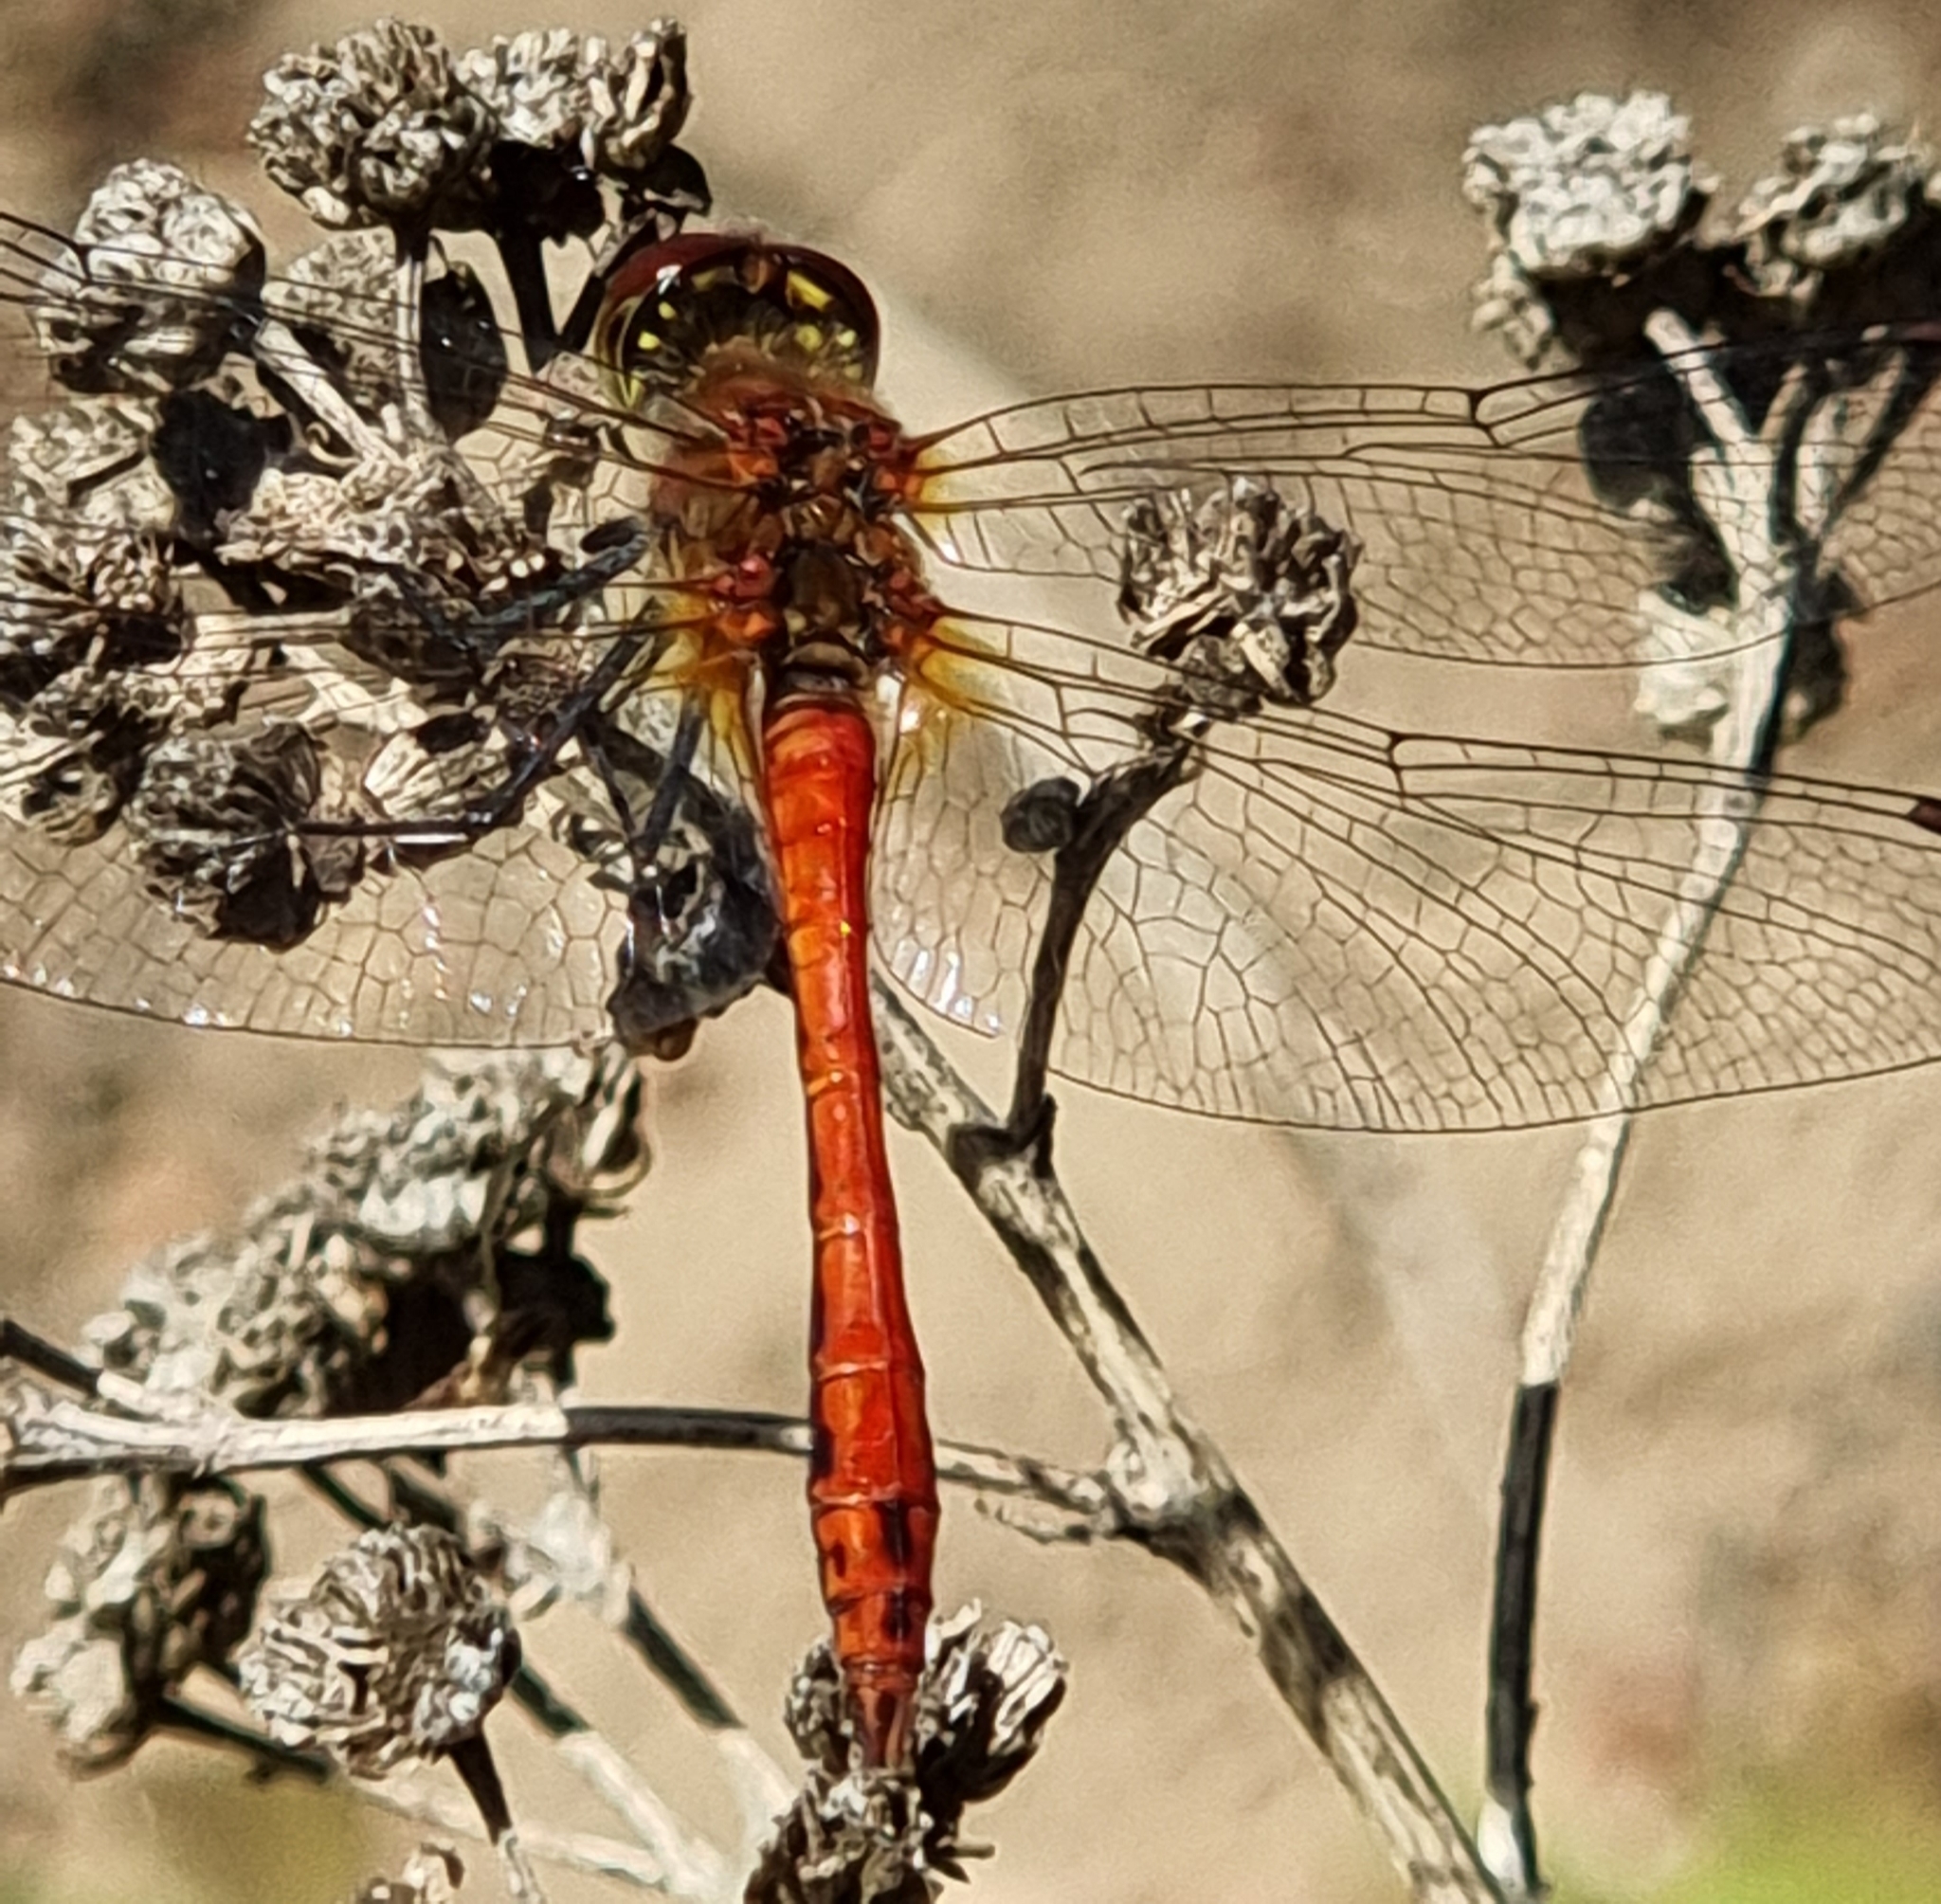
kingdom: Animalia
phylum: Arthropoda
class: Insecta
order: Odonata
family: Libellulidae
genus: Sympetrum
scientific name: Sympetrum sanguineum
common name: Ruddy darter
